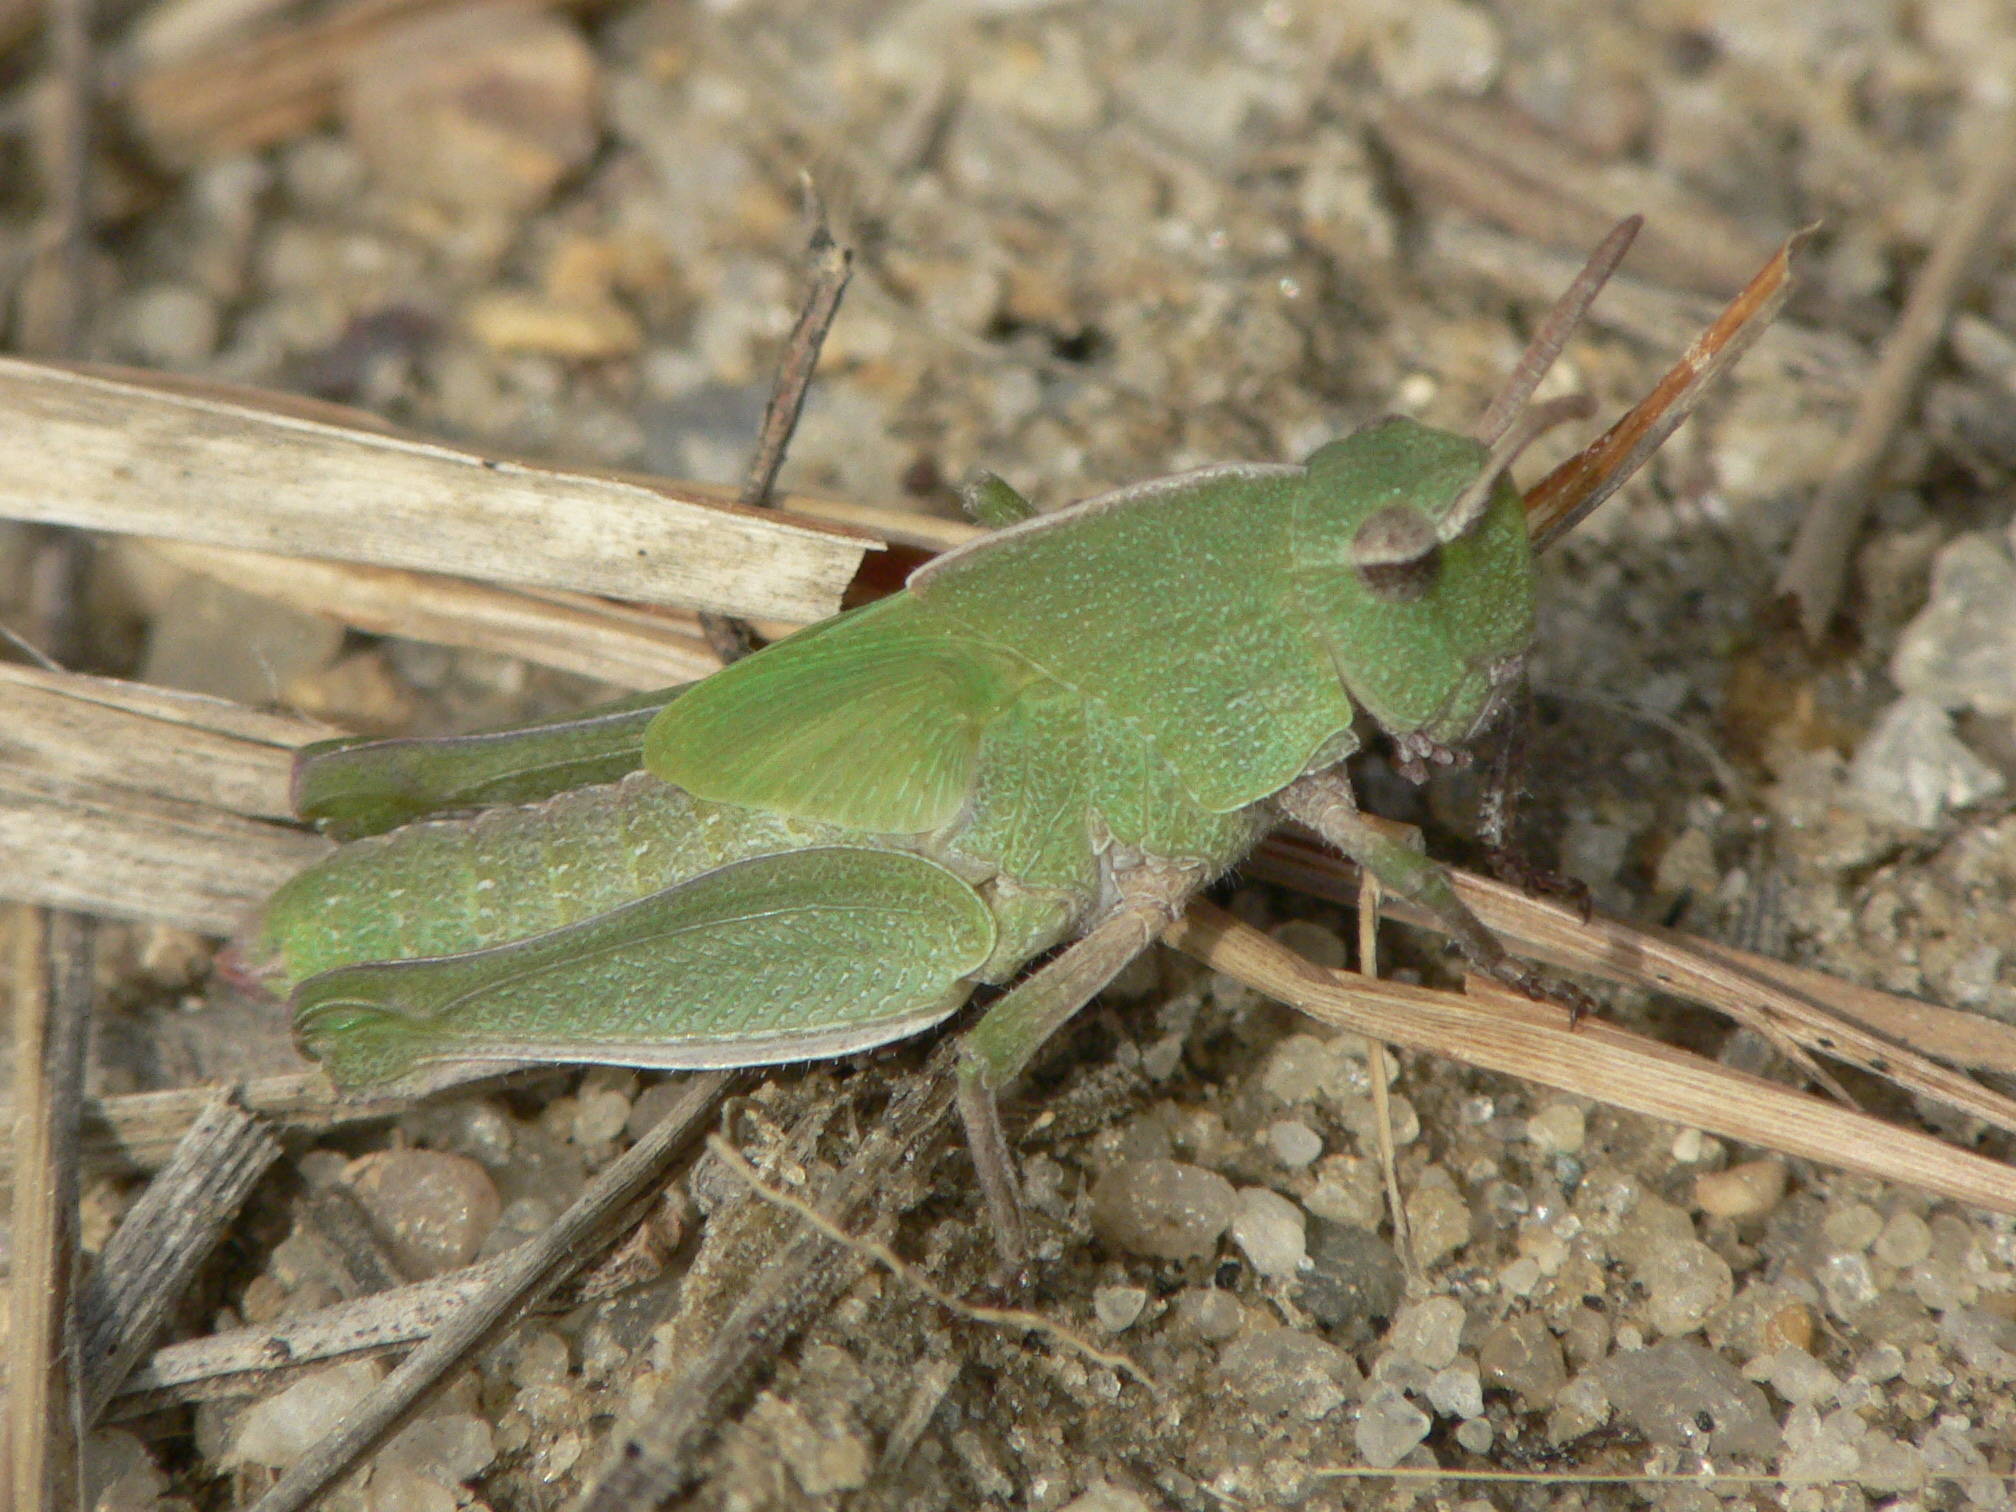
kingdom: Animalia
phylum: Arthropoda
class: Insecta
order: Orthoptera
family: Acrididae
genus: Chortophaga
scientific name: Chortophaga viridifasciata
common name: Green-striped grasshopper
